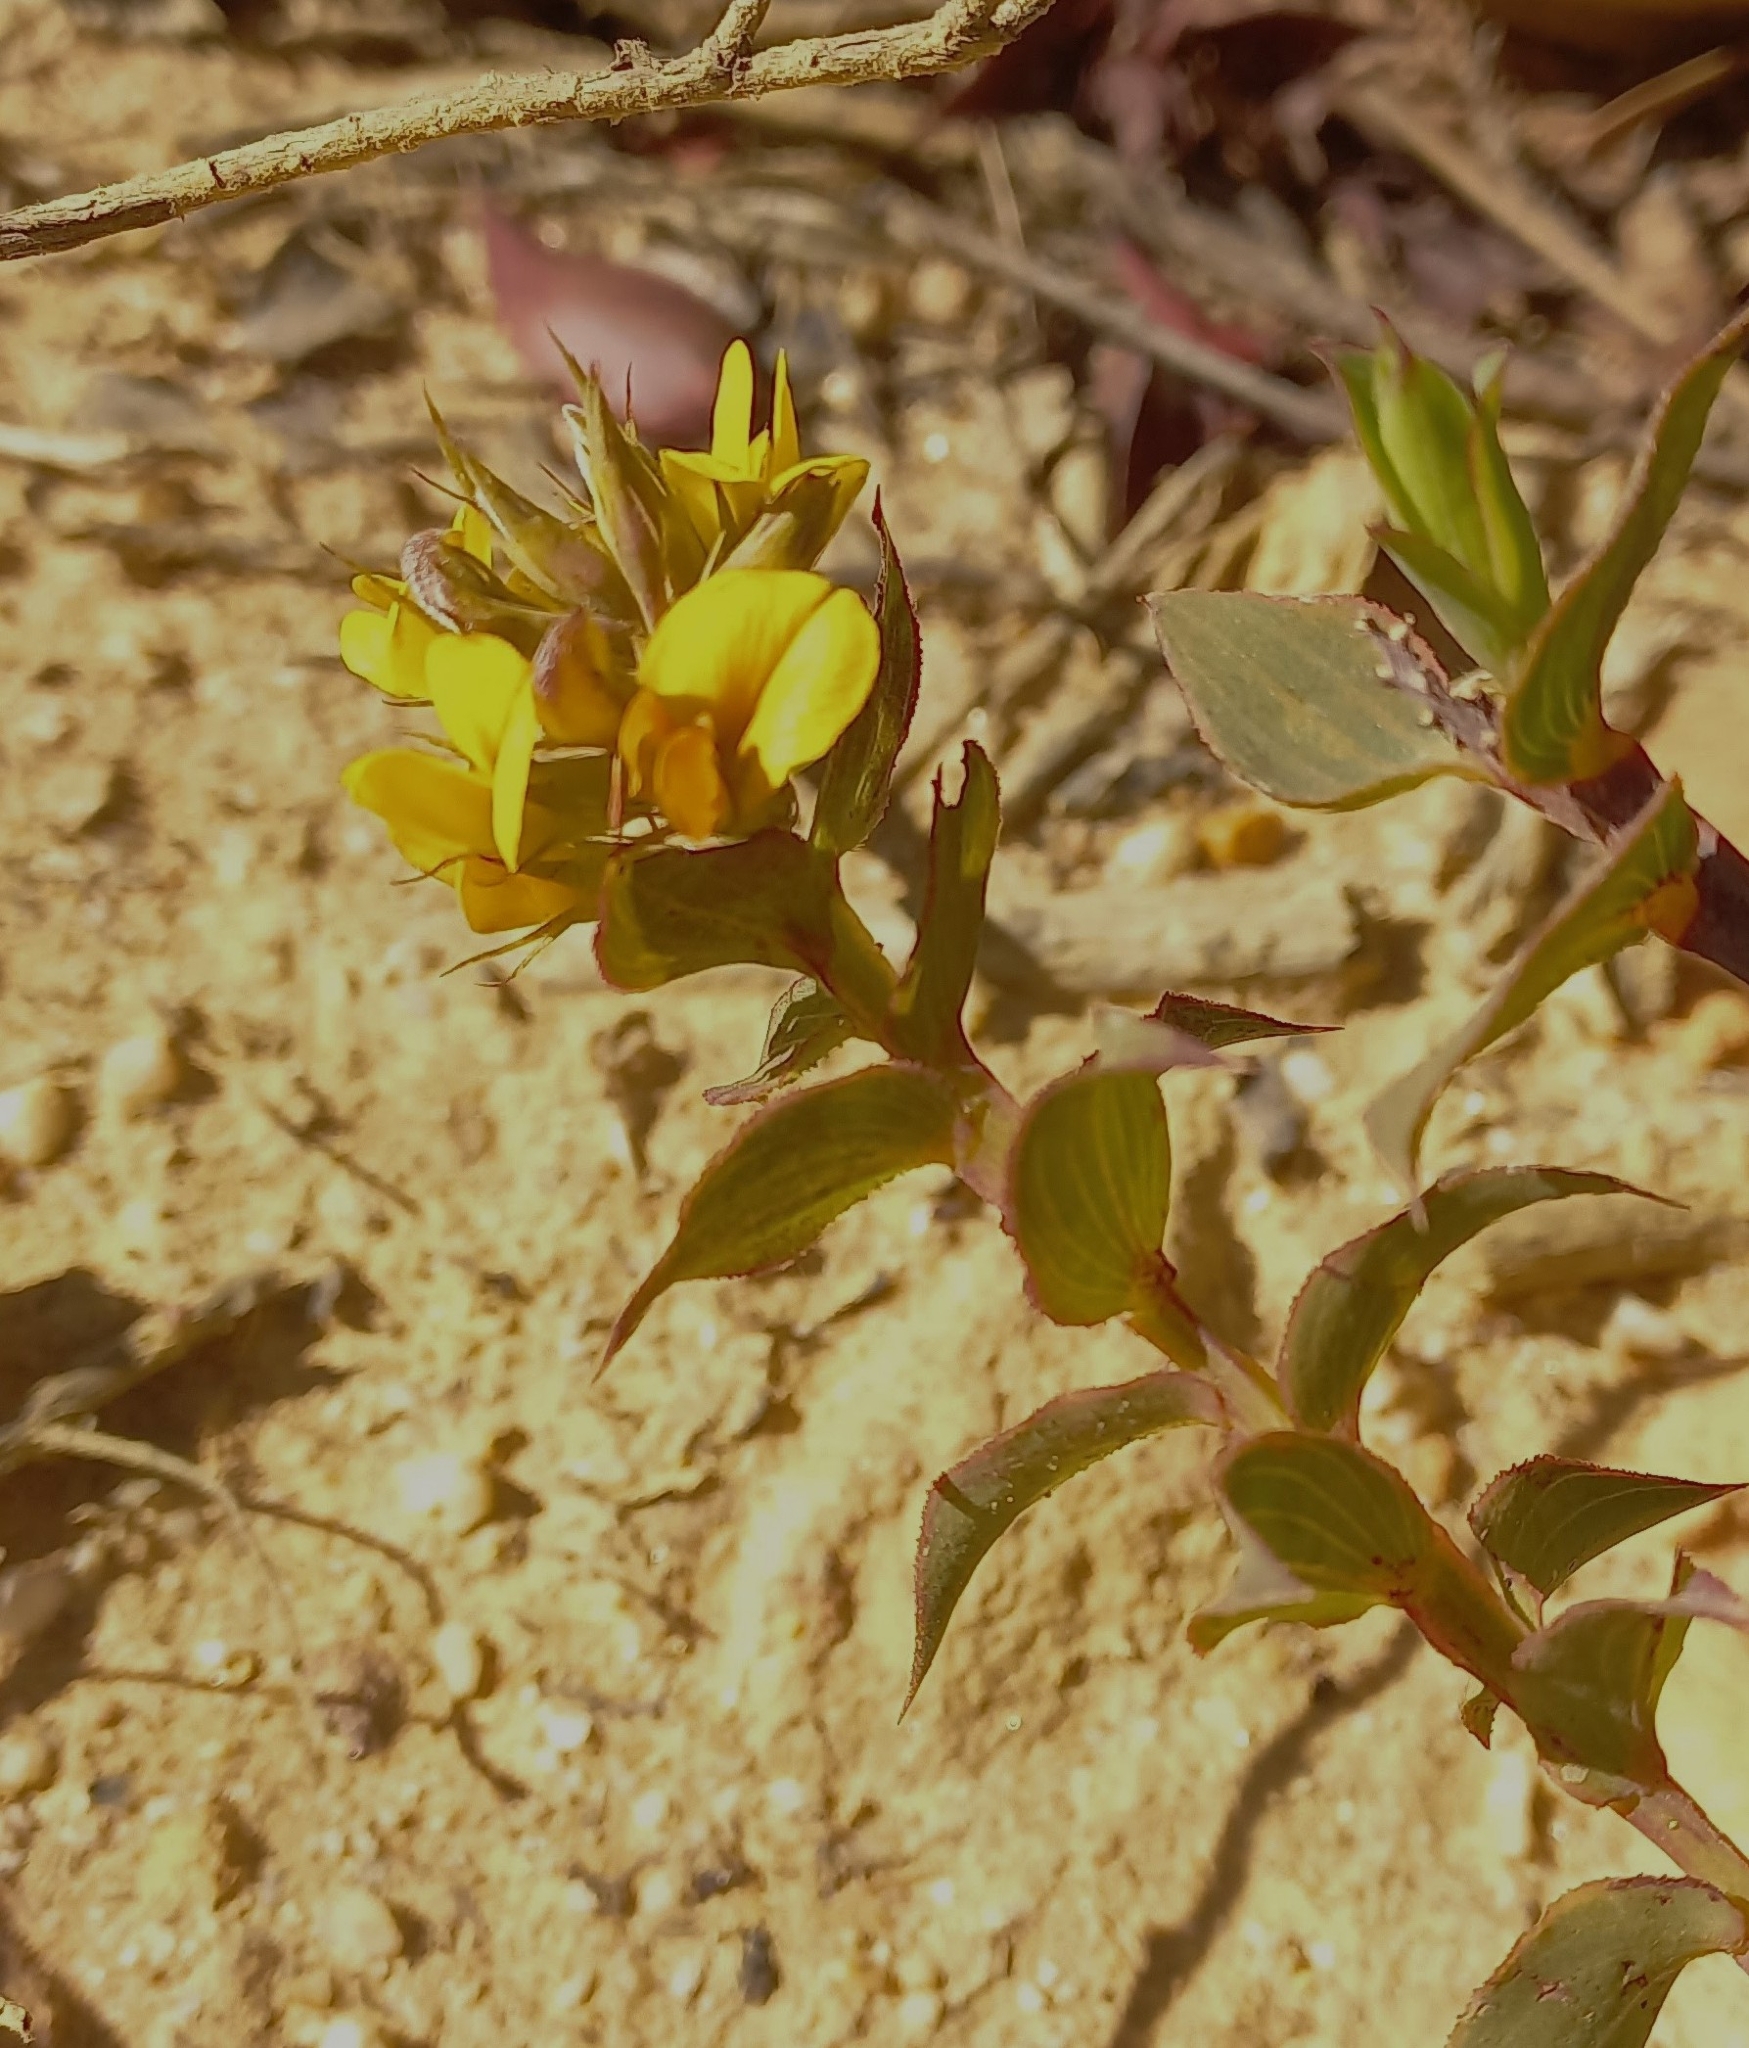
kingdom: Plantae
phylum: Tracheophyta
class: Magnoliopsida
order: Fabales
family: Fabaceae
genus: Aspalathus
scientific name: Aspalathus crenata
